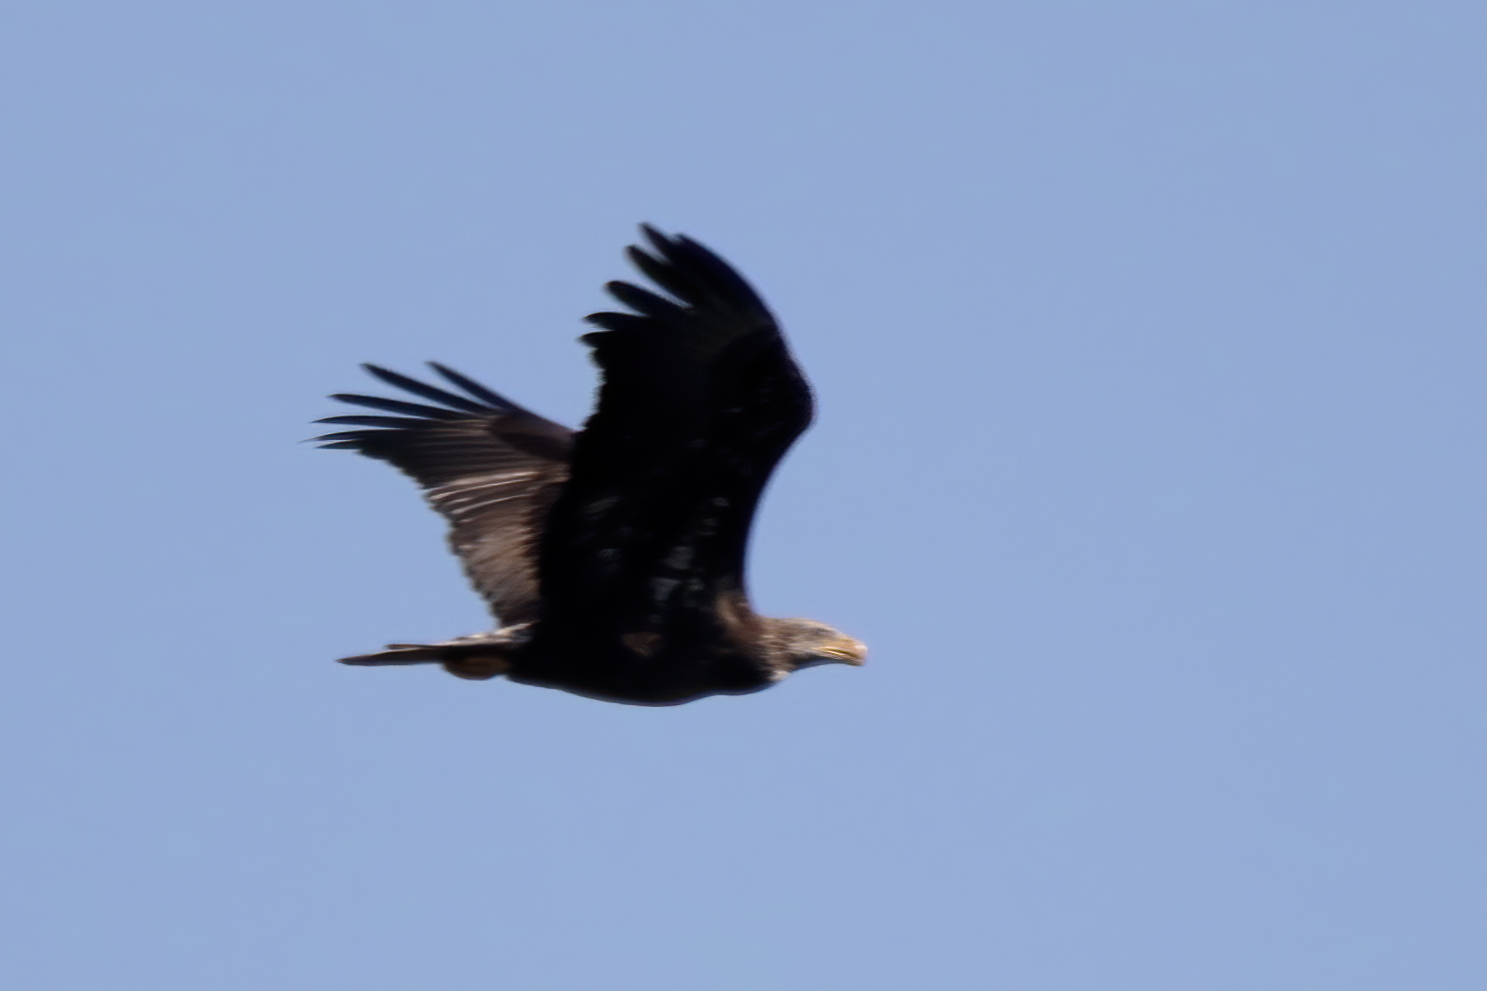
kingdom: Animalia
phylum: Chordata
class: Aves
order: Accipitriformes
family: Accipitridae
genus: Haliaeetus
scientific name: Haliaeetus leucocephalus
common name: Bald eagle
